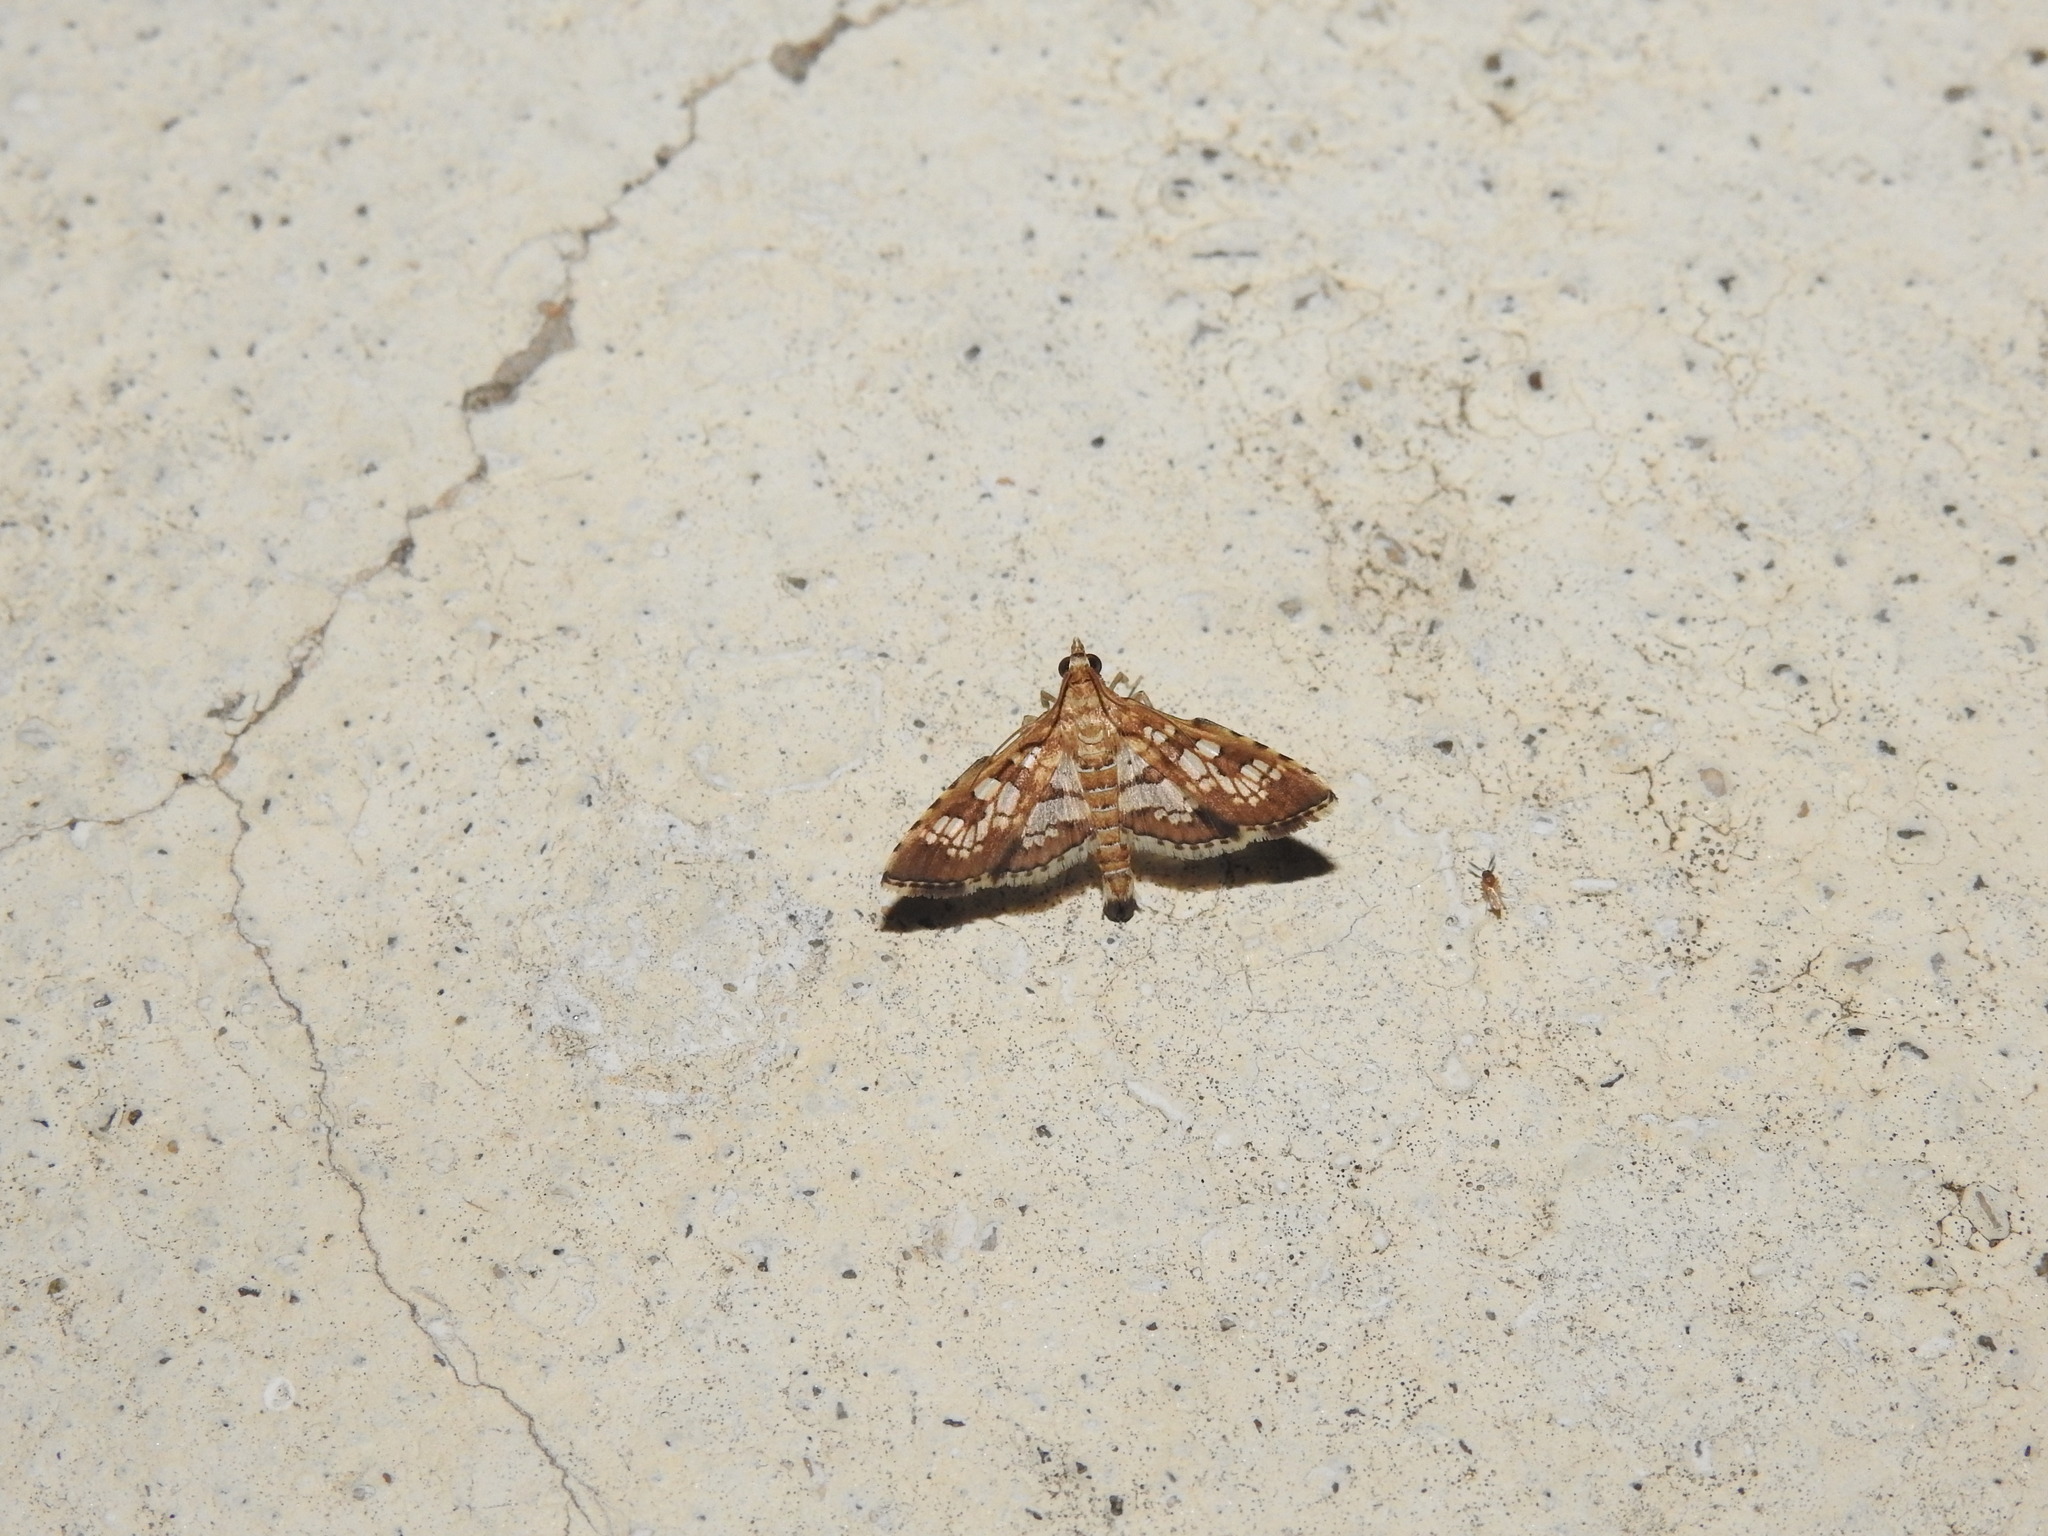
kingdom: Animalia
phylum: Arthropoda
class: Insecta
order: Lepidoptera
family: Crambidae
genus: Sameodes
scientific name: Sameodes cancellalis
